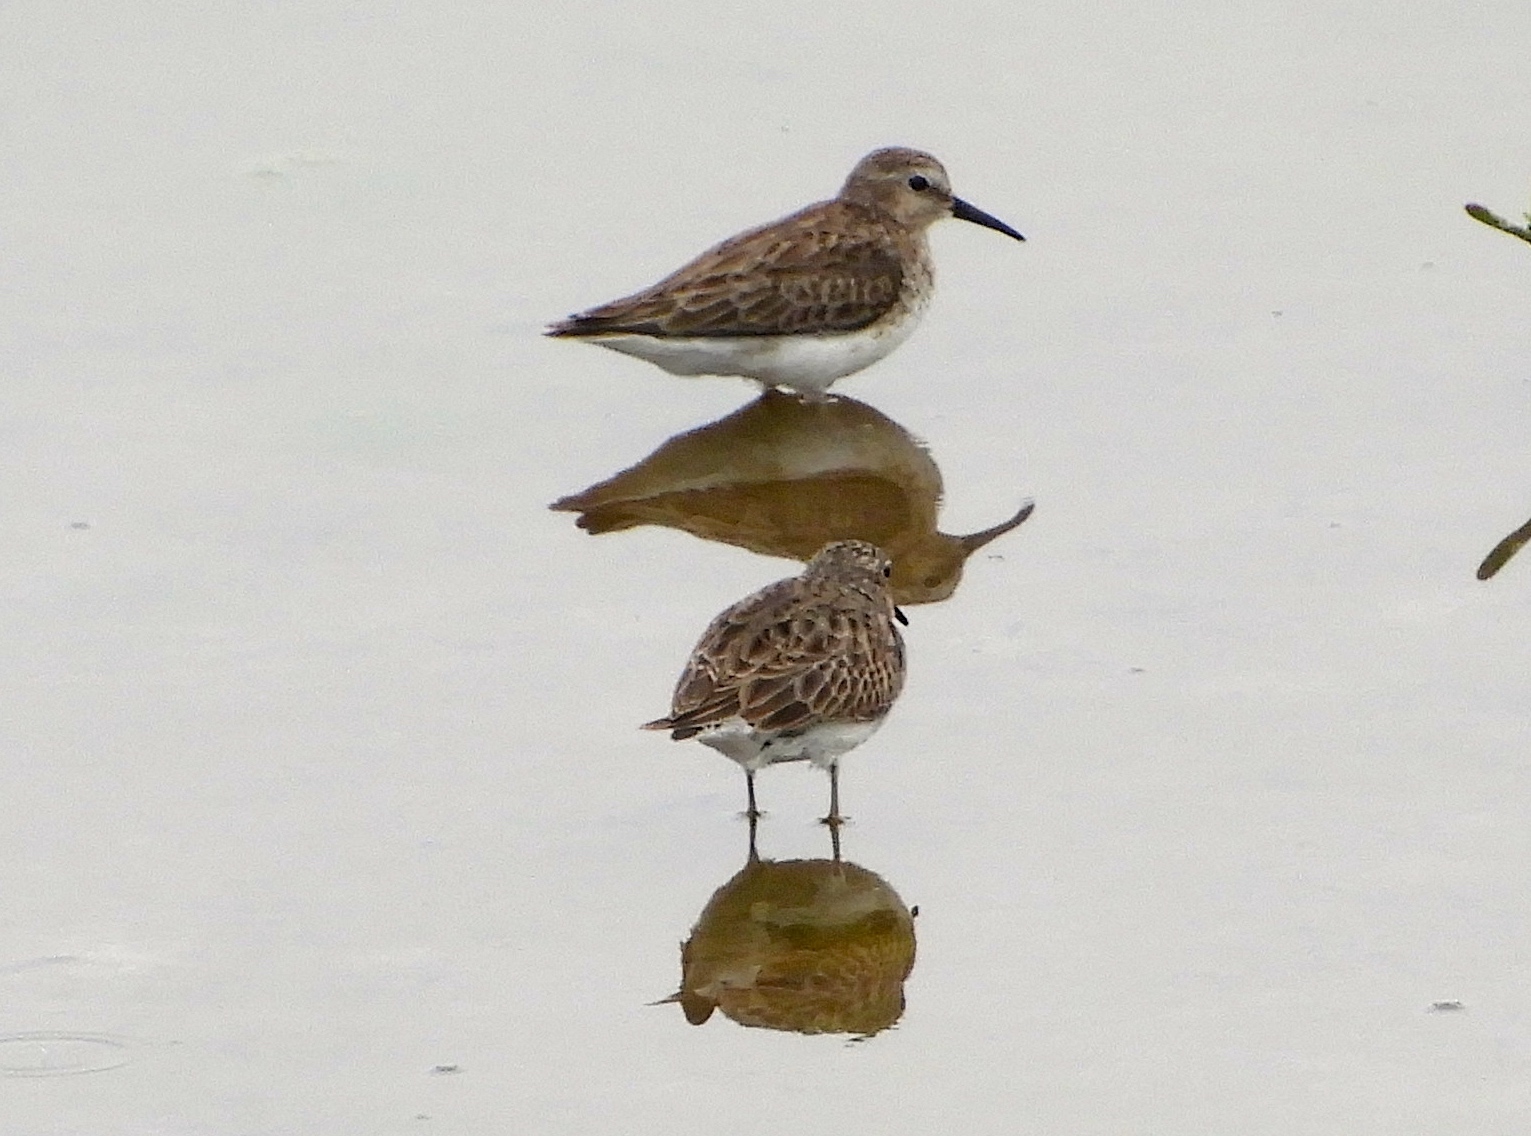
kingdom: Animalia
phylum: Chordata
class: Aves
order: Charadriiformes
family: Scolopacidae
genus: Calidris
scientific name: Calidris minutilla
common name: Least sandpiper
